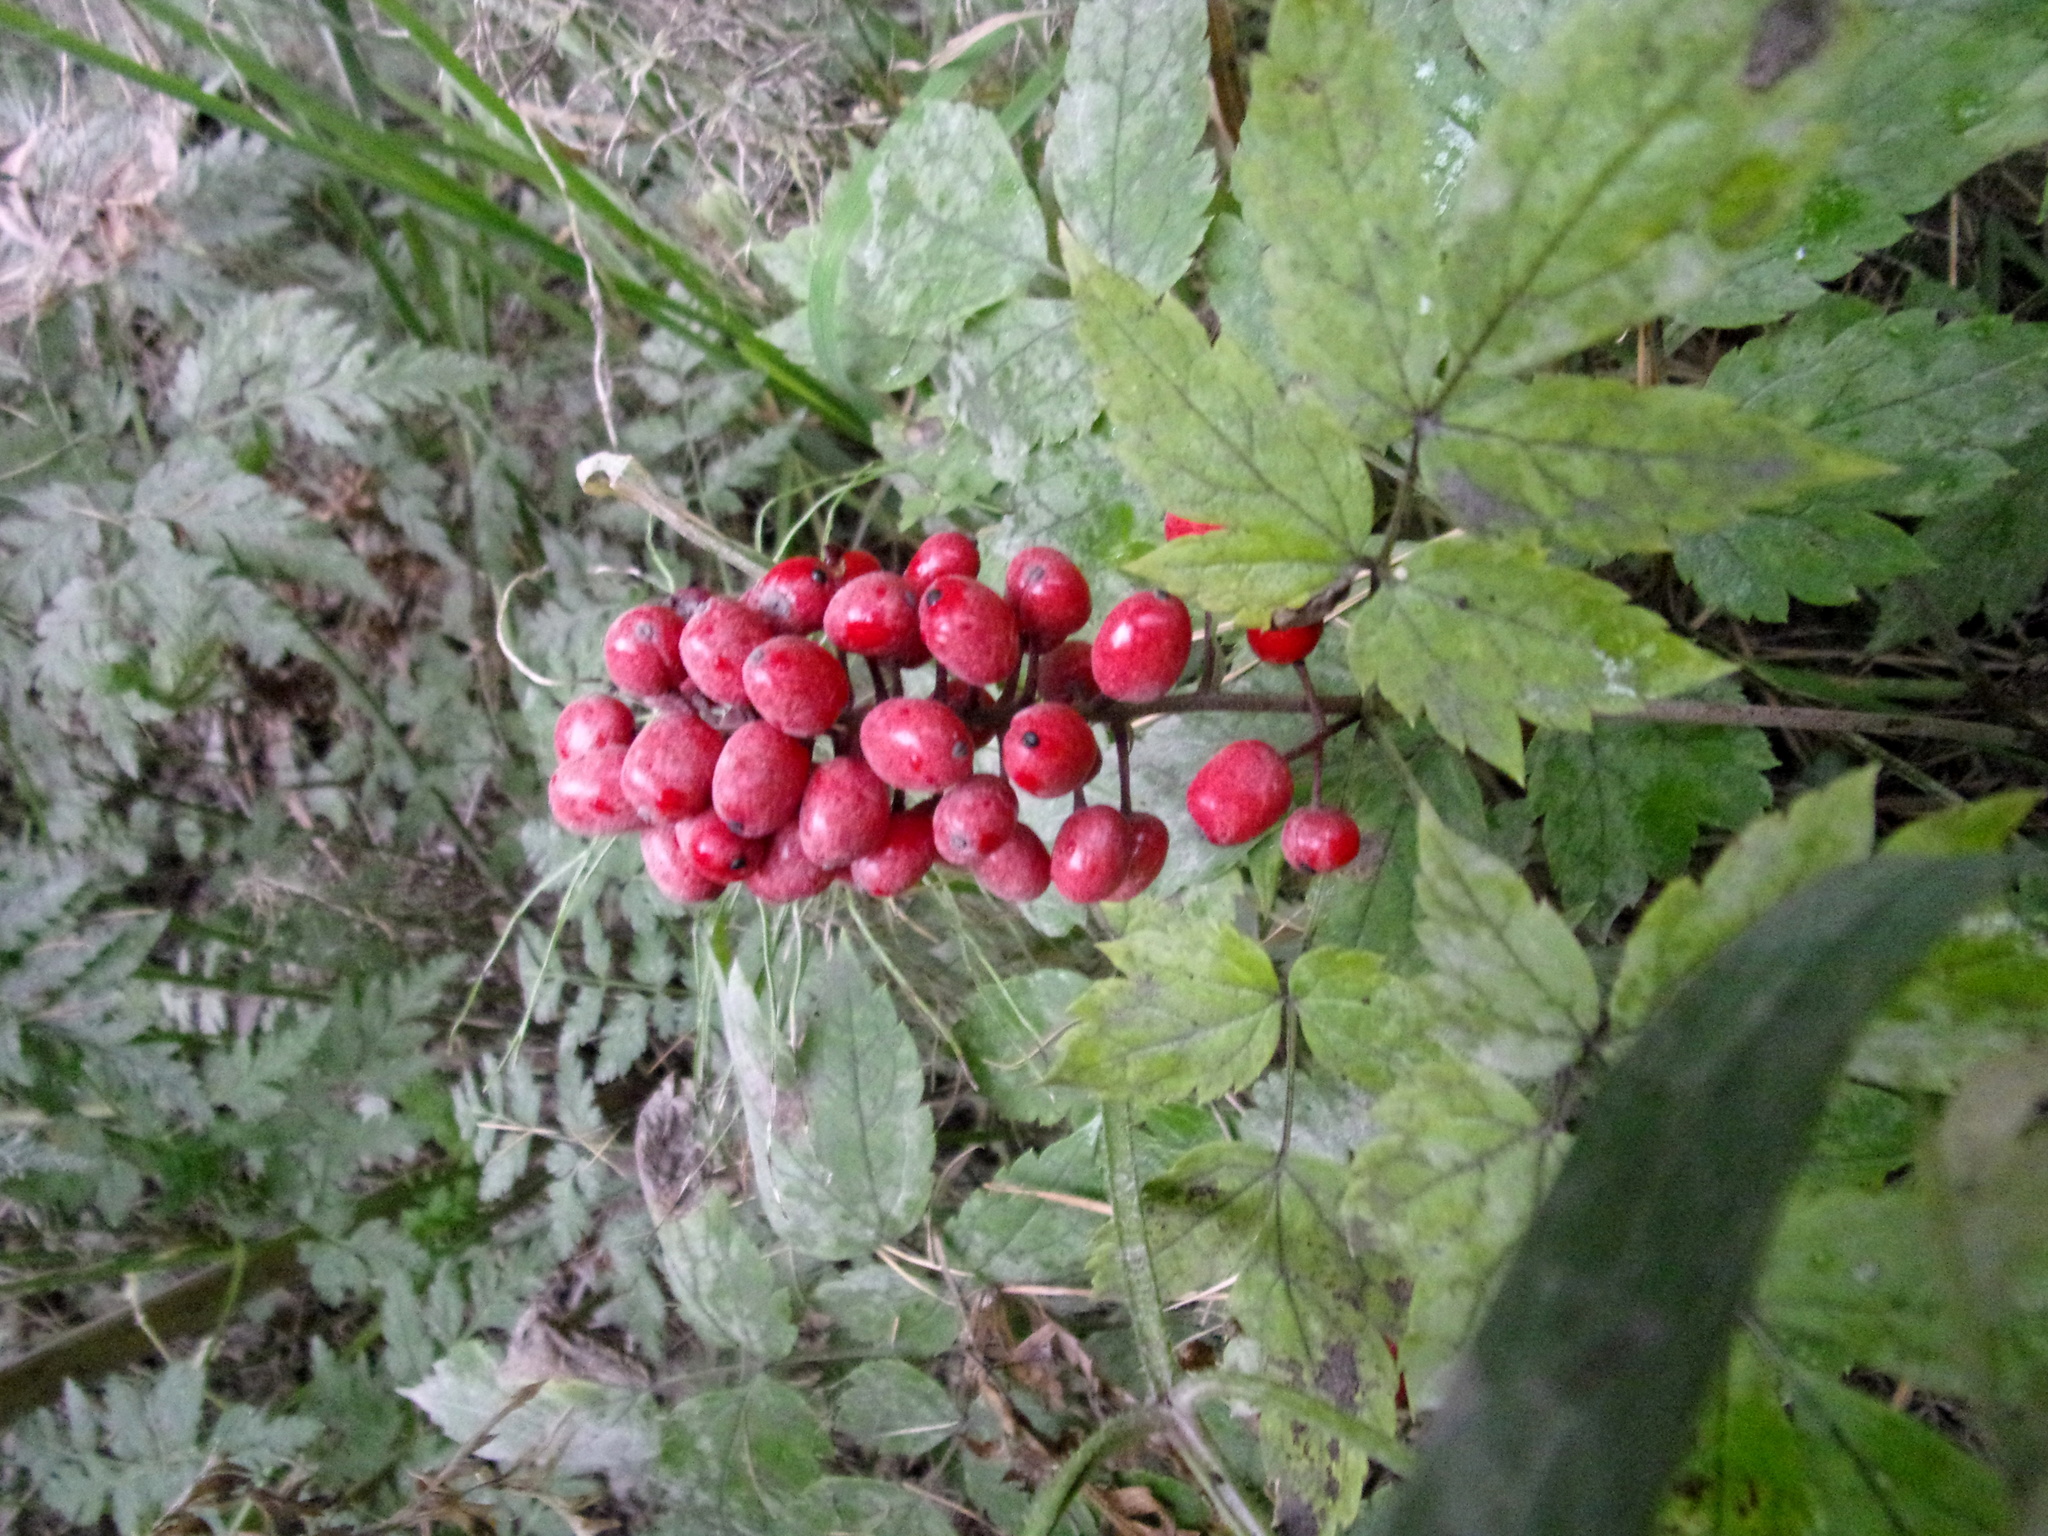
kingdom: Plantae
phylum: Tracheophyta
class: Magnoliopsida
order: Ranunculales
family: Ranunculaceae
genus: Actaea
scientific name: Actaea erythrocarpa
